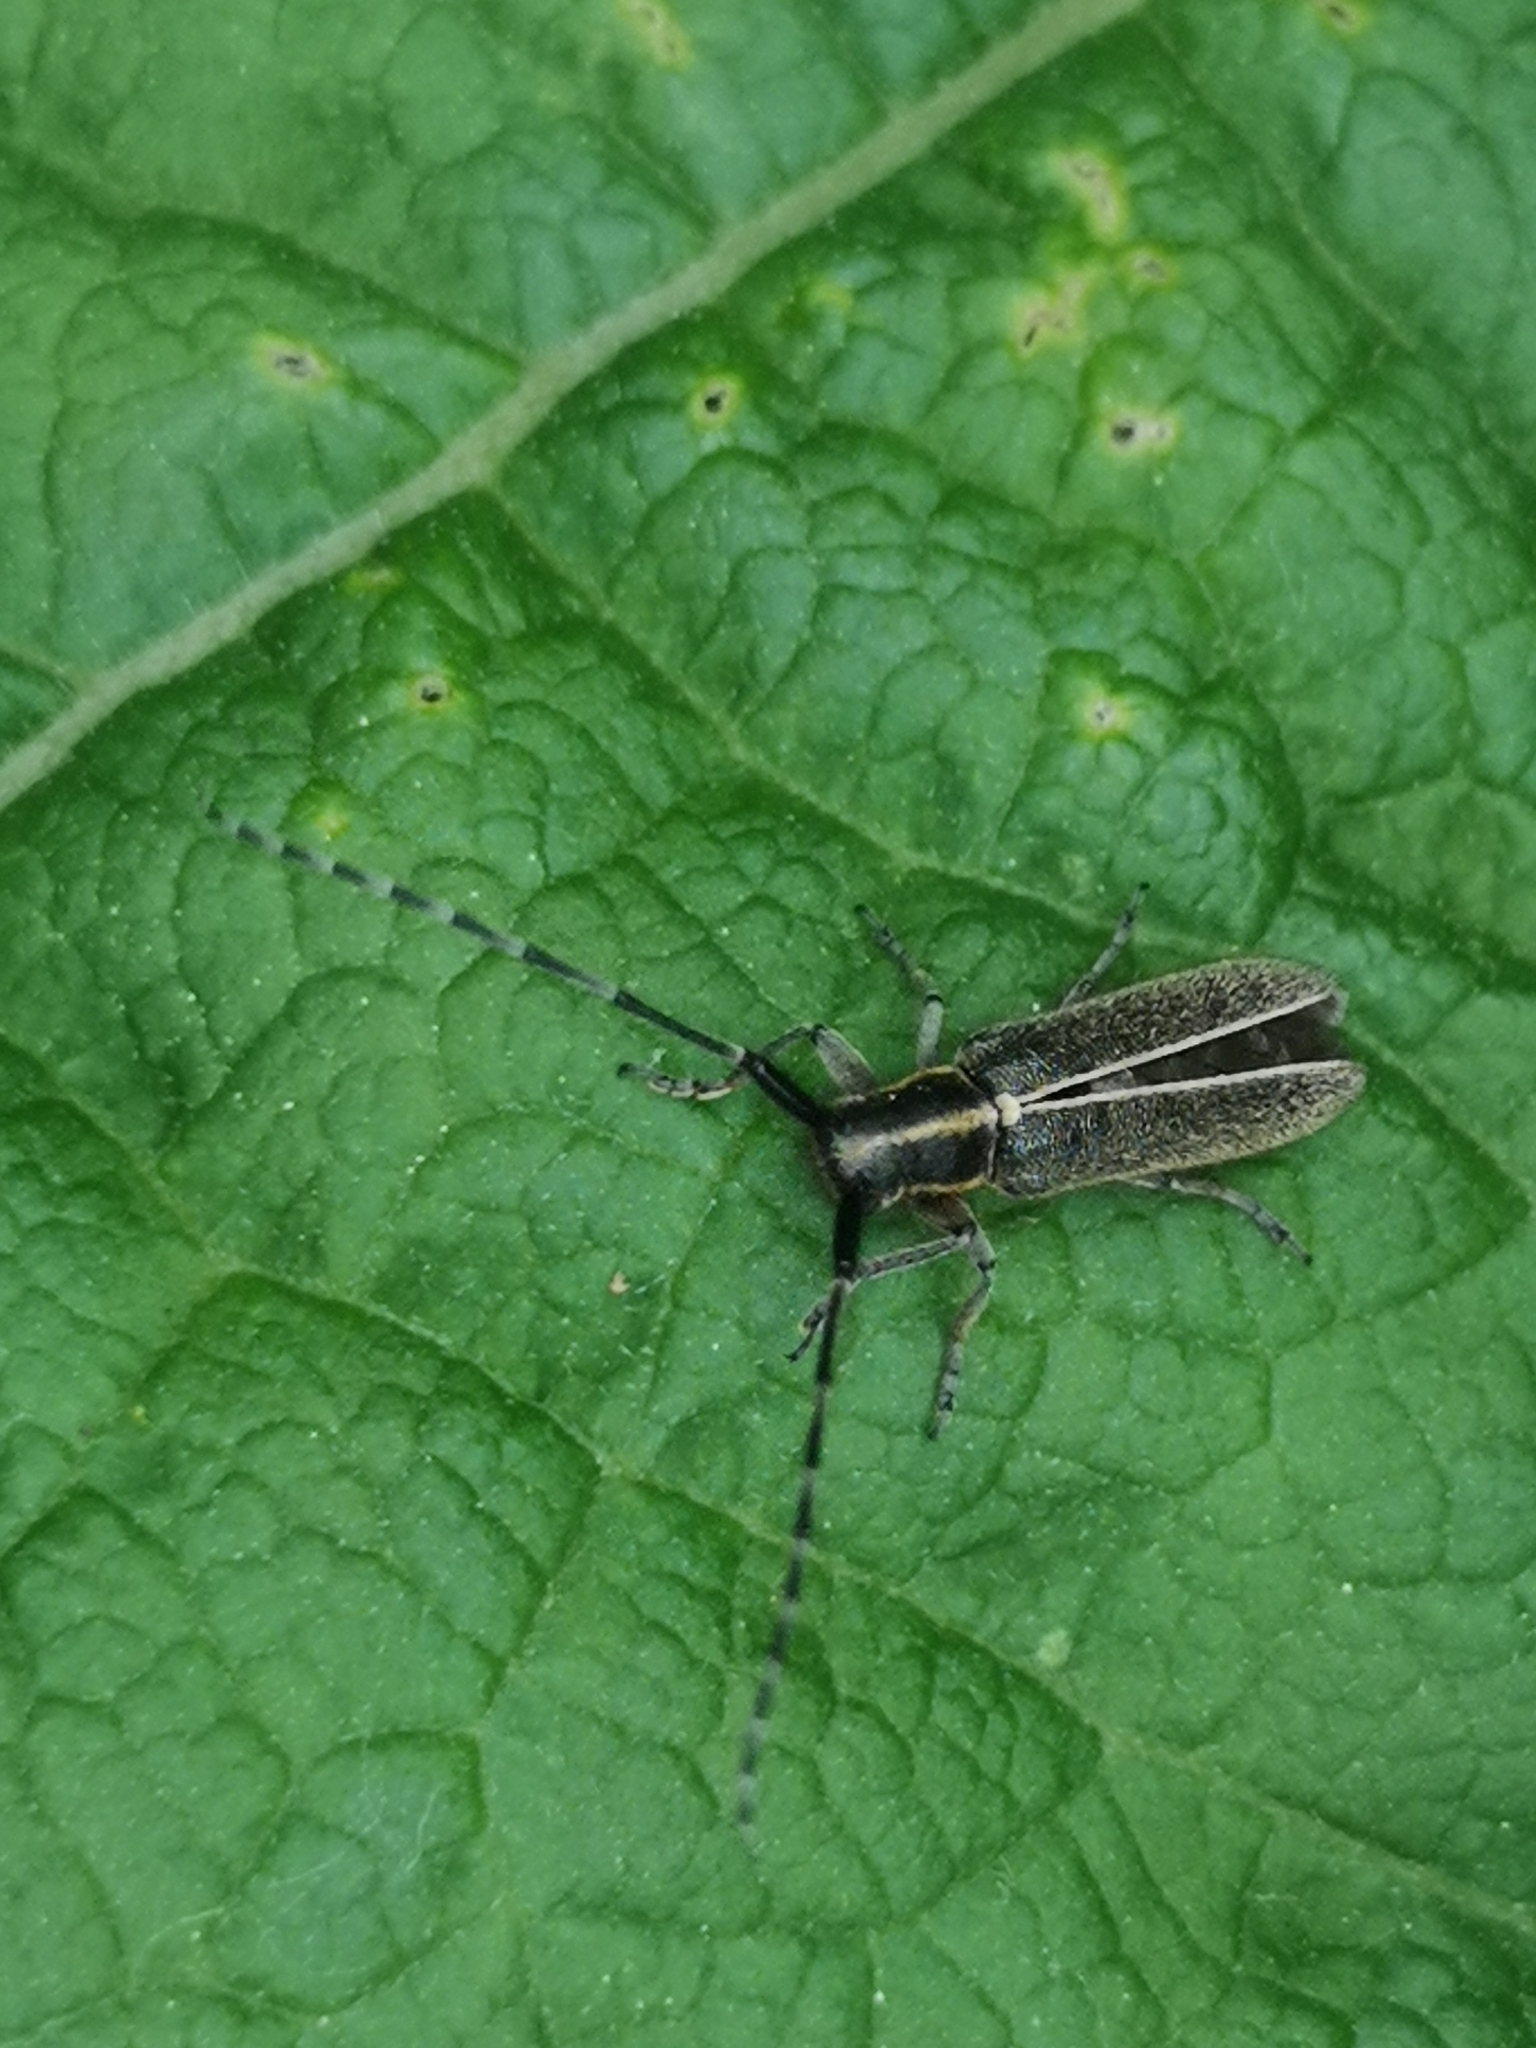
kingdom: Animalia
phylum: Arthropoda
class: Insecta
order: Coleoptera
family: Cerambycidae
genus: Agapanthia
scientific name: Agapanthia cardui
